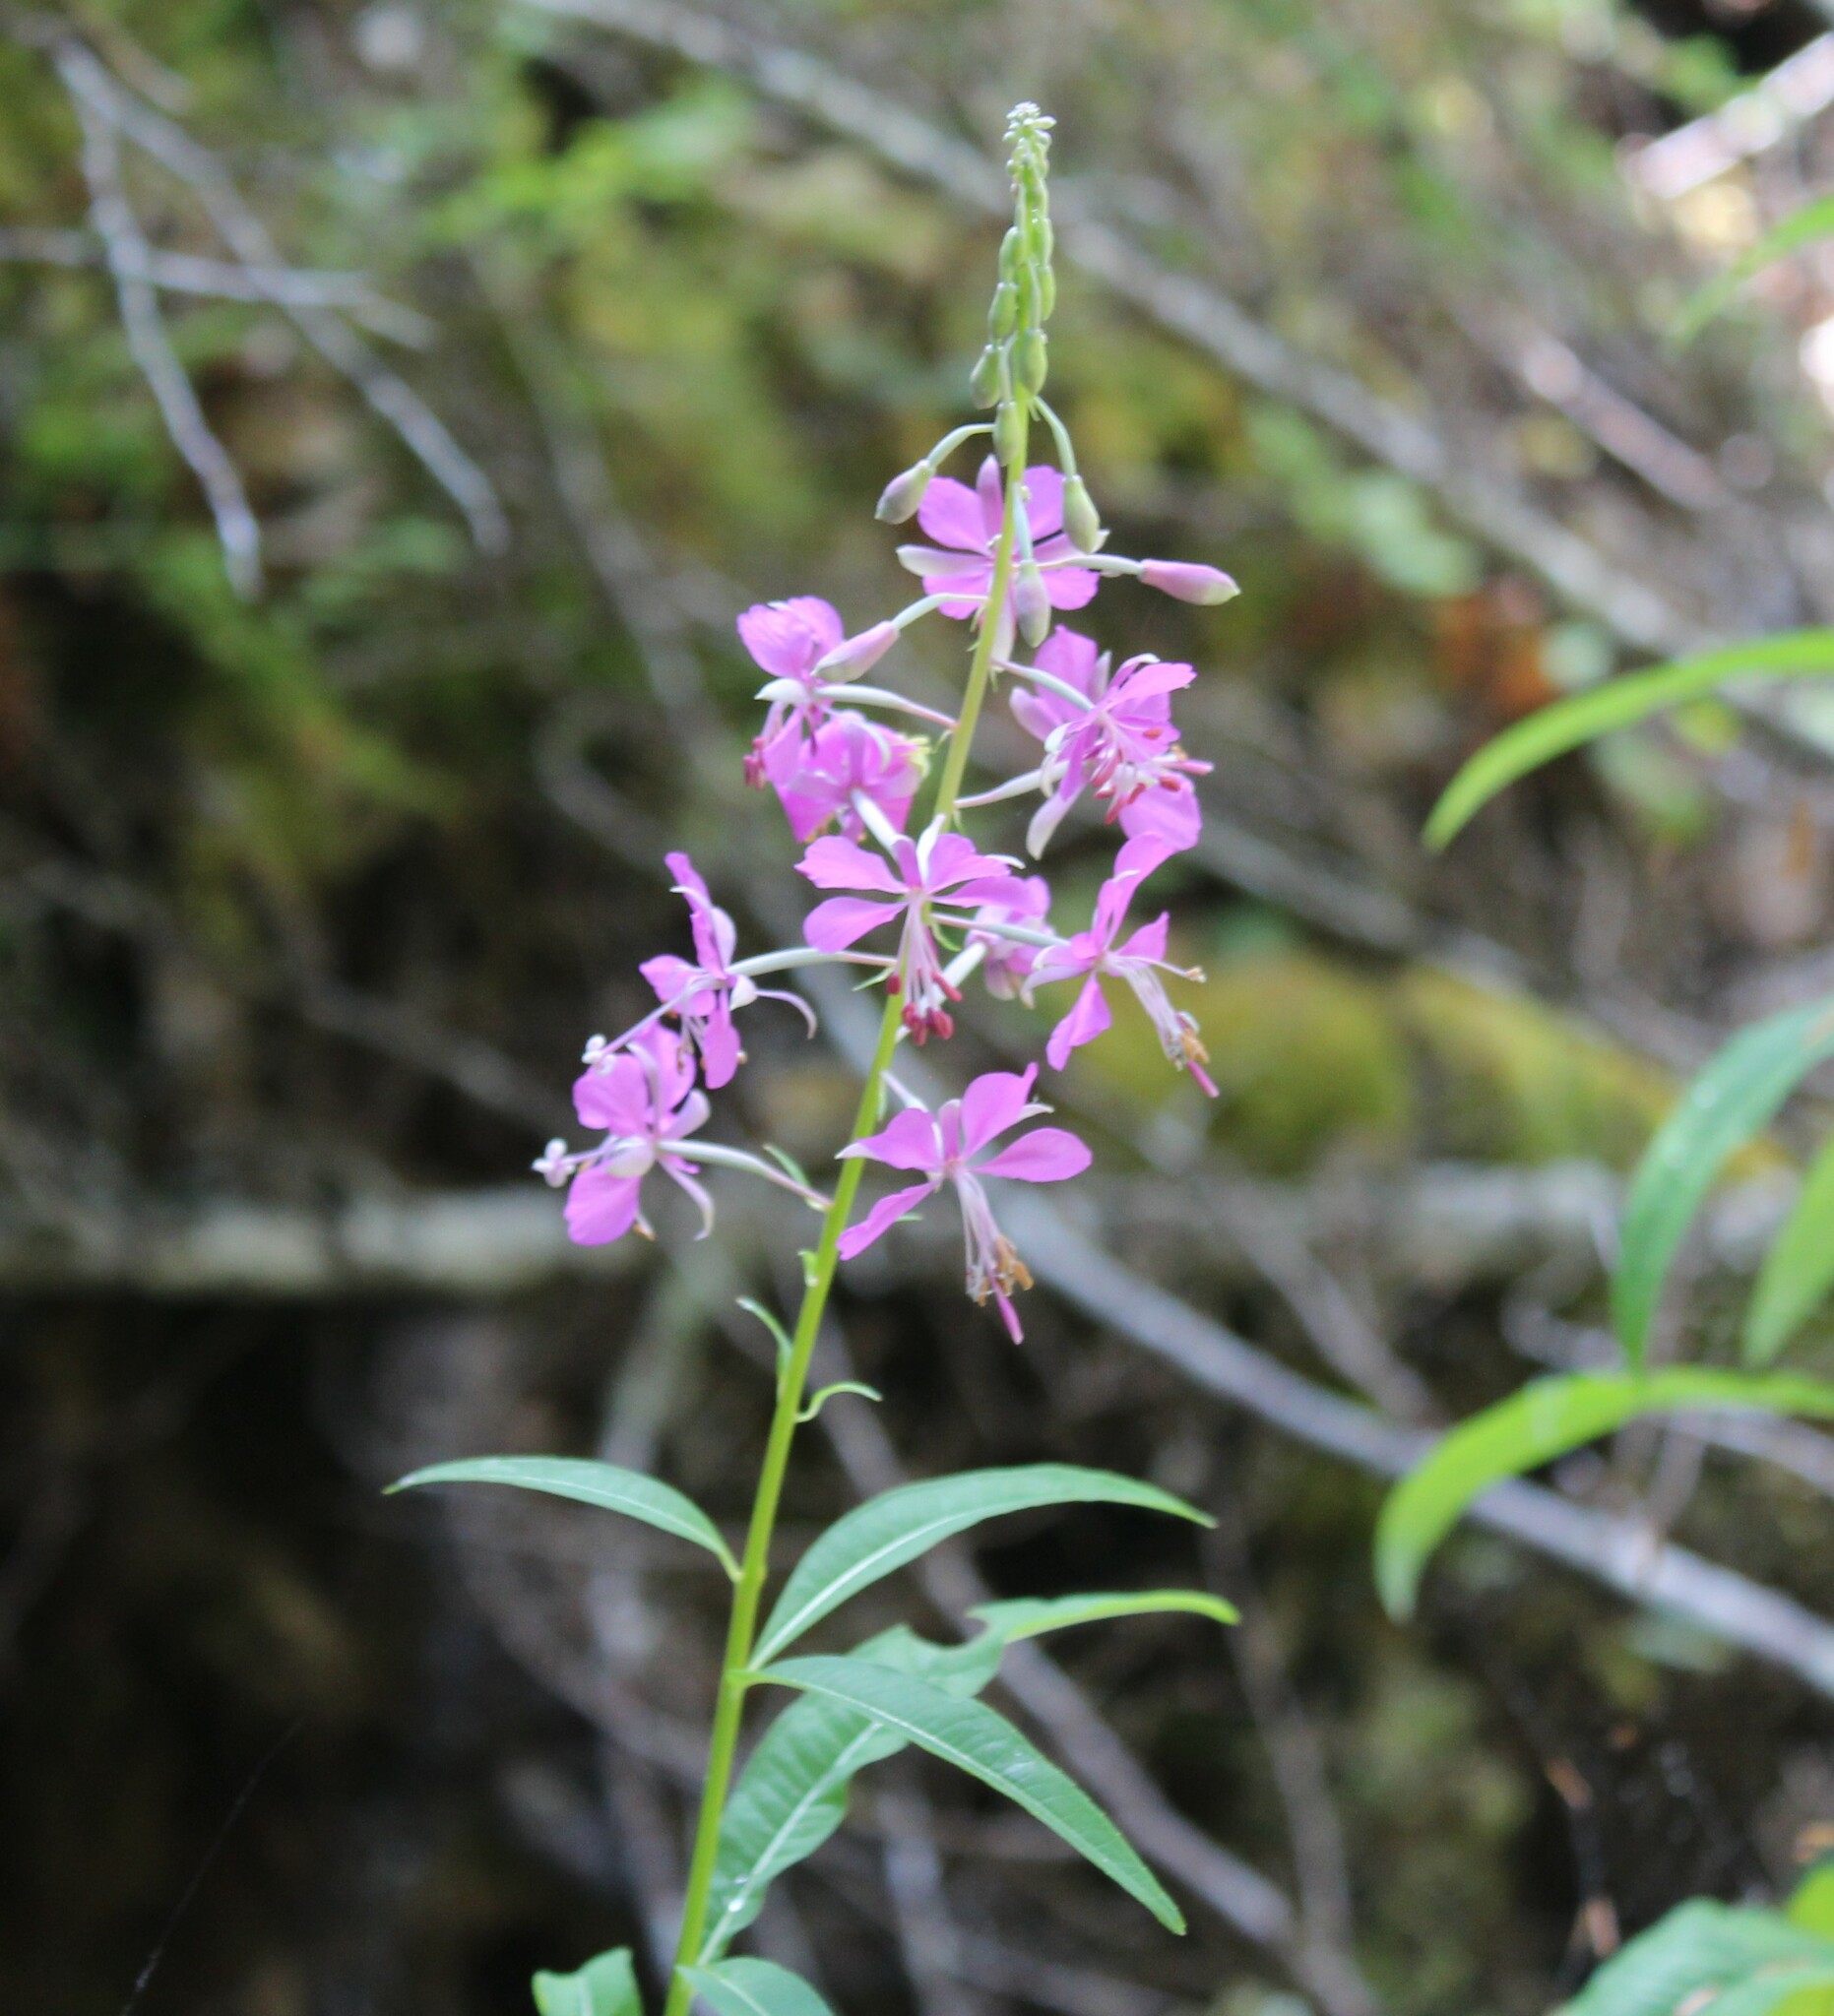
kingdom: Plantae
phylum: Tracheophyta
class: Magnoliopsida
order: Myrtales
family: Onagraceae
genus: Chamaenerion
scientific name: Chamaenerion angustifolium
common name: Fireweed
